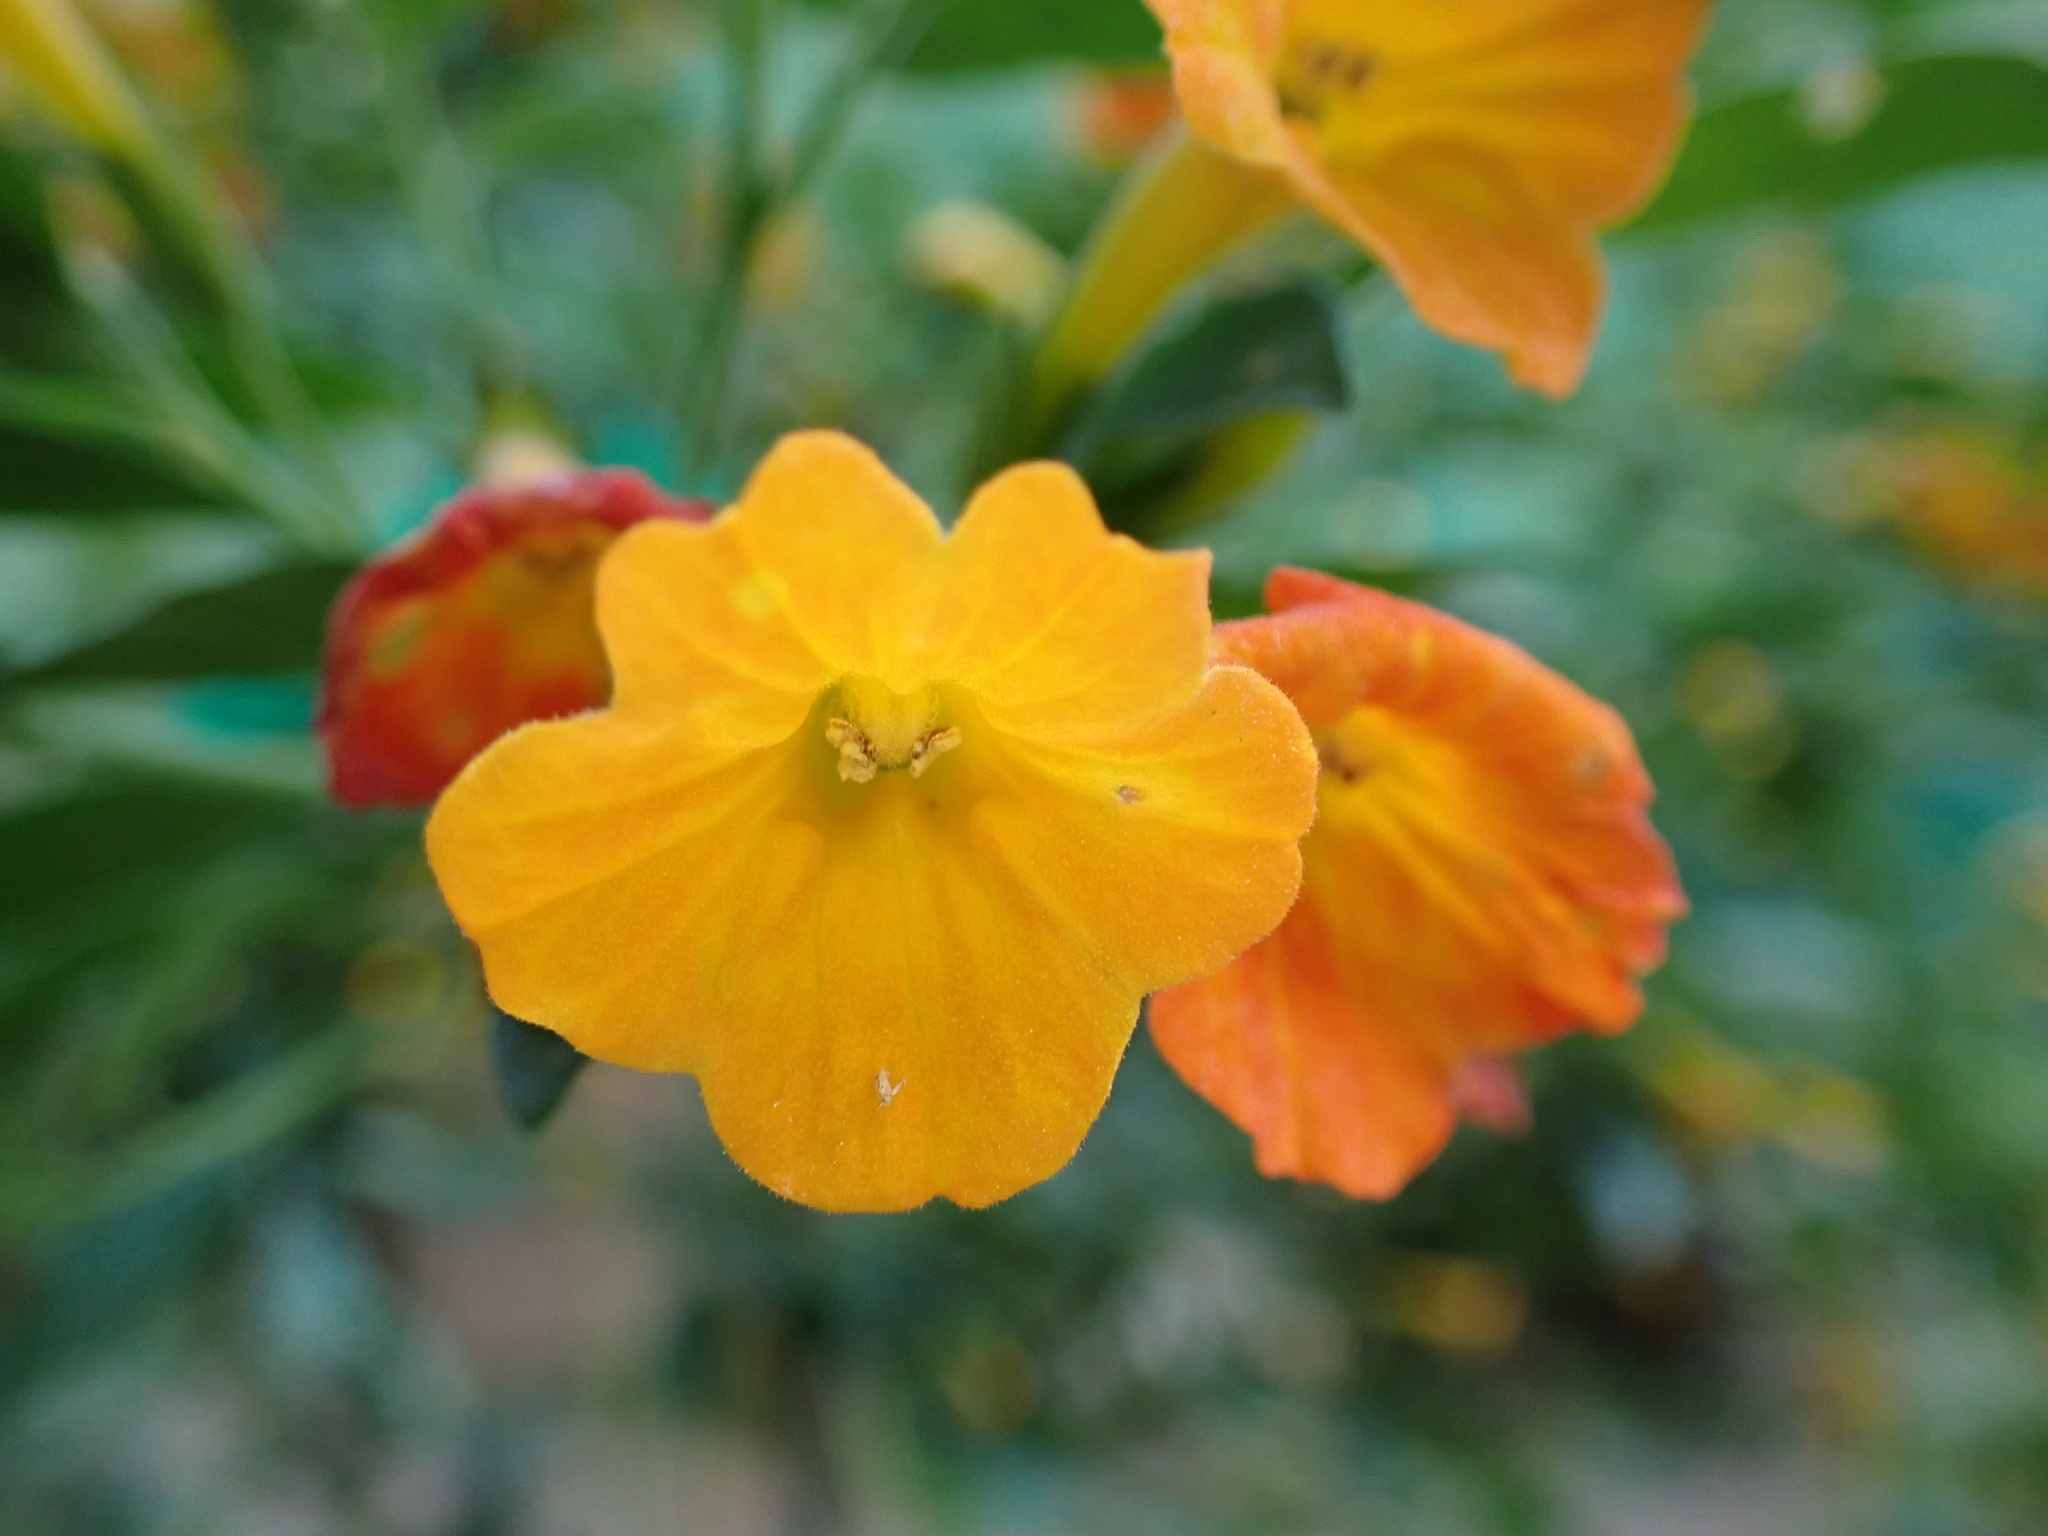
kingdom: Plantae
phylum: Tracheophyta
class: Magnoliopsida
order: Solanales
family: Solanaceae
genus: Streptosolen
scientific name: Streptosolen jamesonii
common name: Marmalade bush
